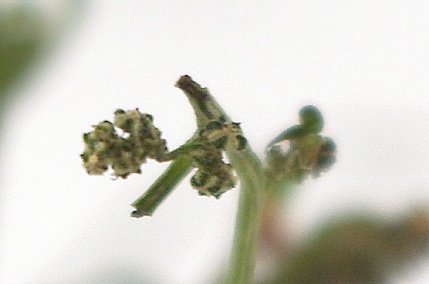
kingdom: Plantae
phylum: Tracheophyta
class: Magnoliopsida
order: Caryophyllales
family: Amaranthaceae
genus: Atriplex
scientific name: Atriplex patula
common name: Common orache
